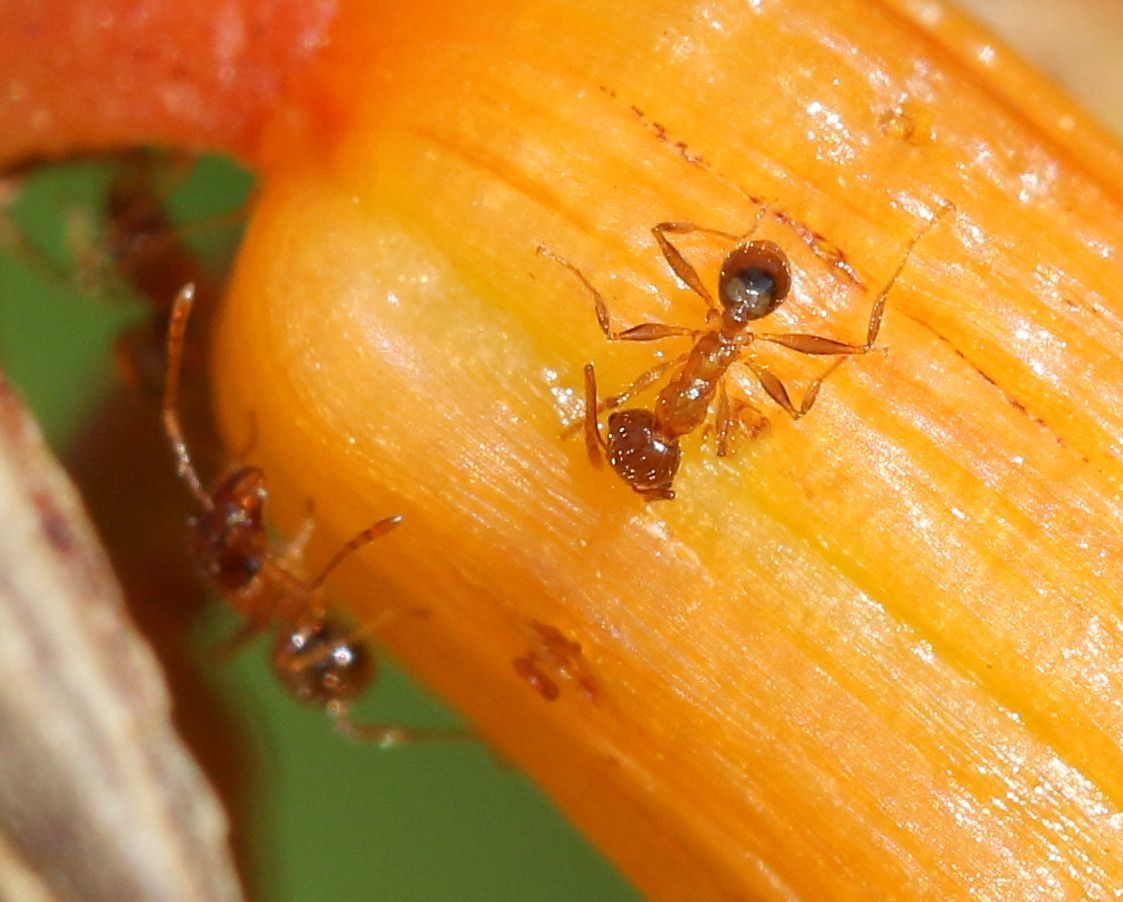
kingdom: Animalia
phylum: Arthropoda
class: Insecta
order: Hymenoptera
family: Formicidae
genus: Pheidole
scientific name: Pheidole megacephala
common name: Bigheaded ant
